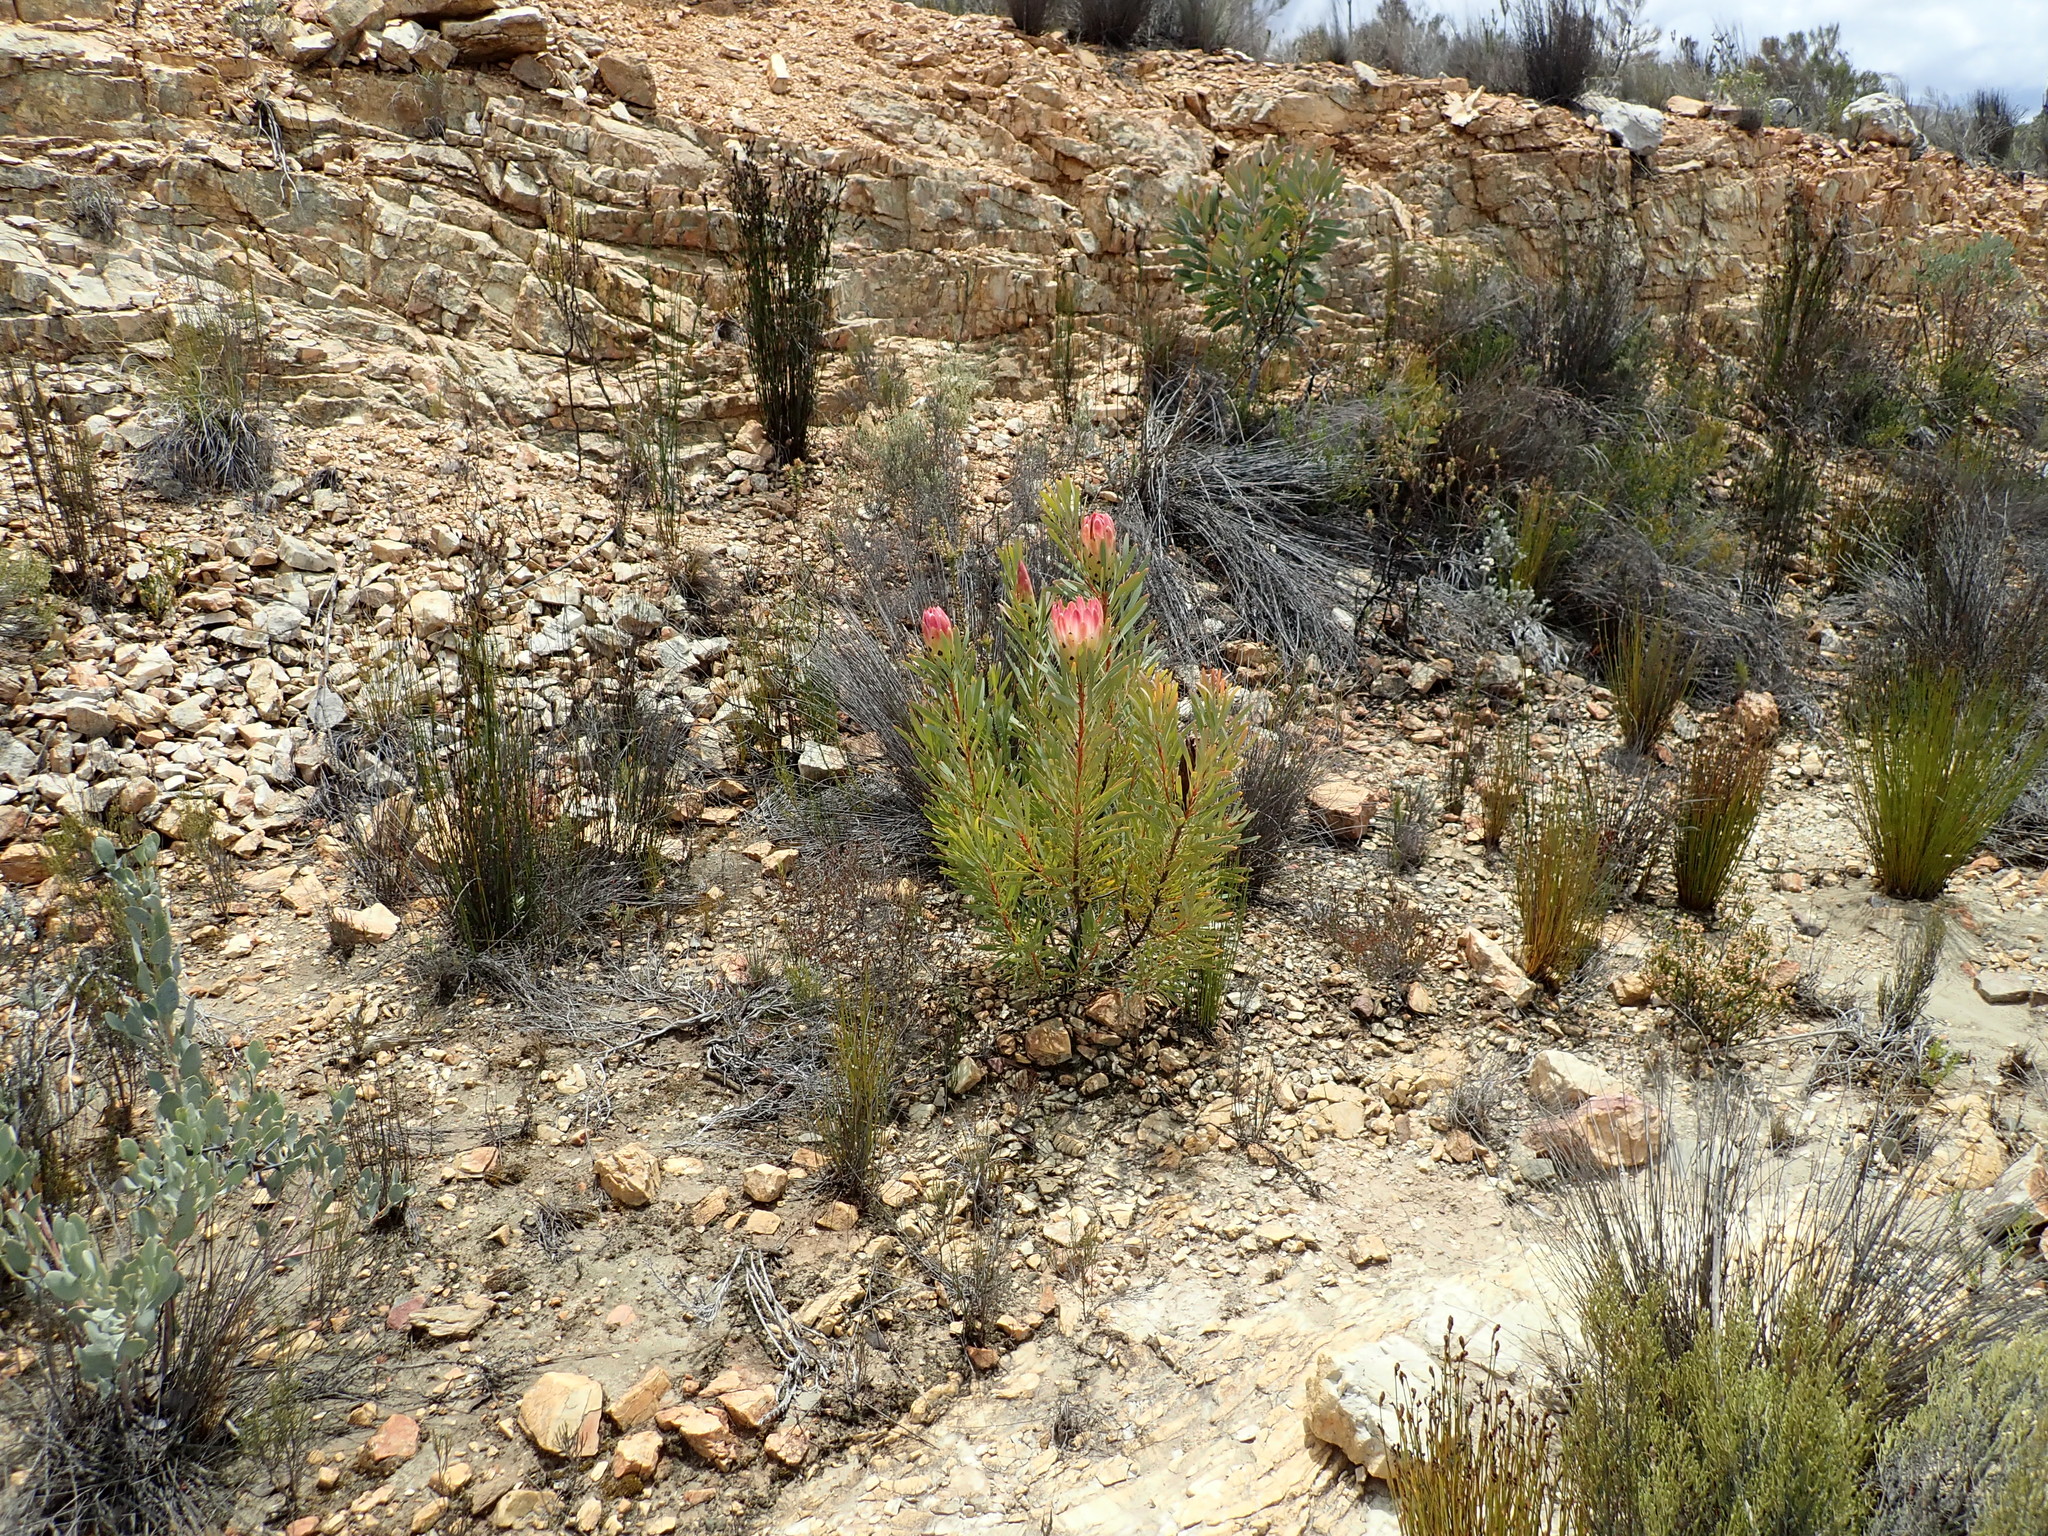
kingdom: Plantae
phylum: Tracheophyta
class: Magnoliopsida
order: Proteales
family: Proteaceae
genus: Protea
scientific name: Protea repens
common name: Sugarbush
